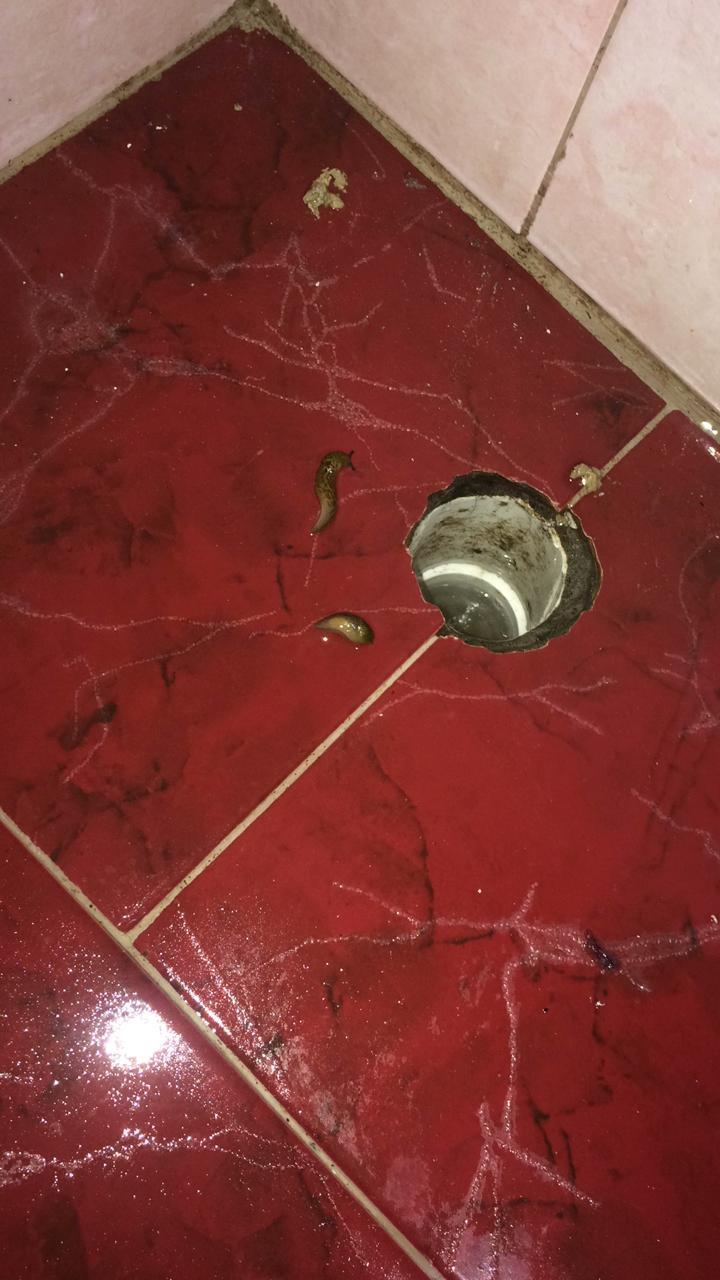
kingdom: Animalia
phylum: Mollusca
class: Gastropoda
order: Stylommatophora
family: Limacidae
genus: Limacus
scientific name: Limacus flavus
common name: Yellow gardenslug
